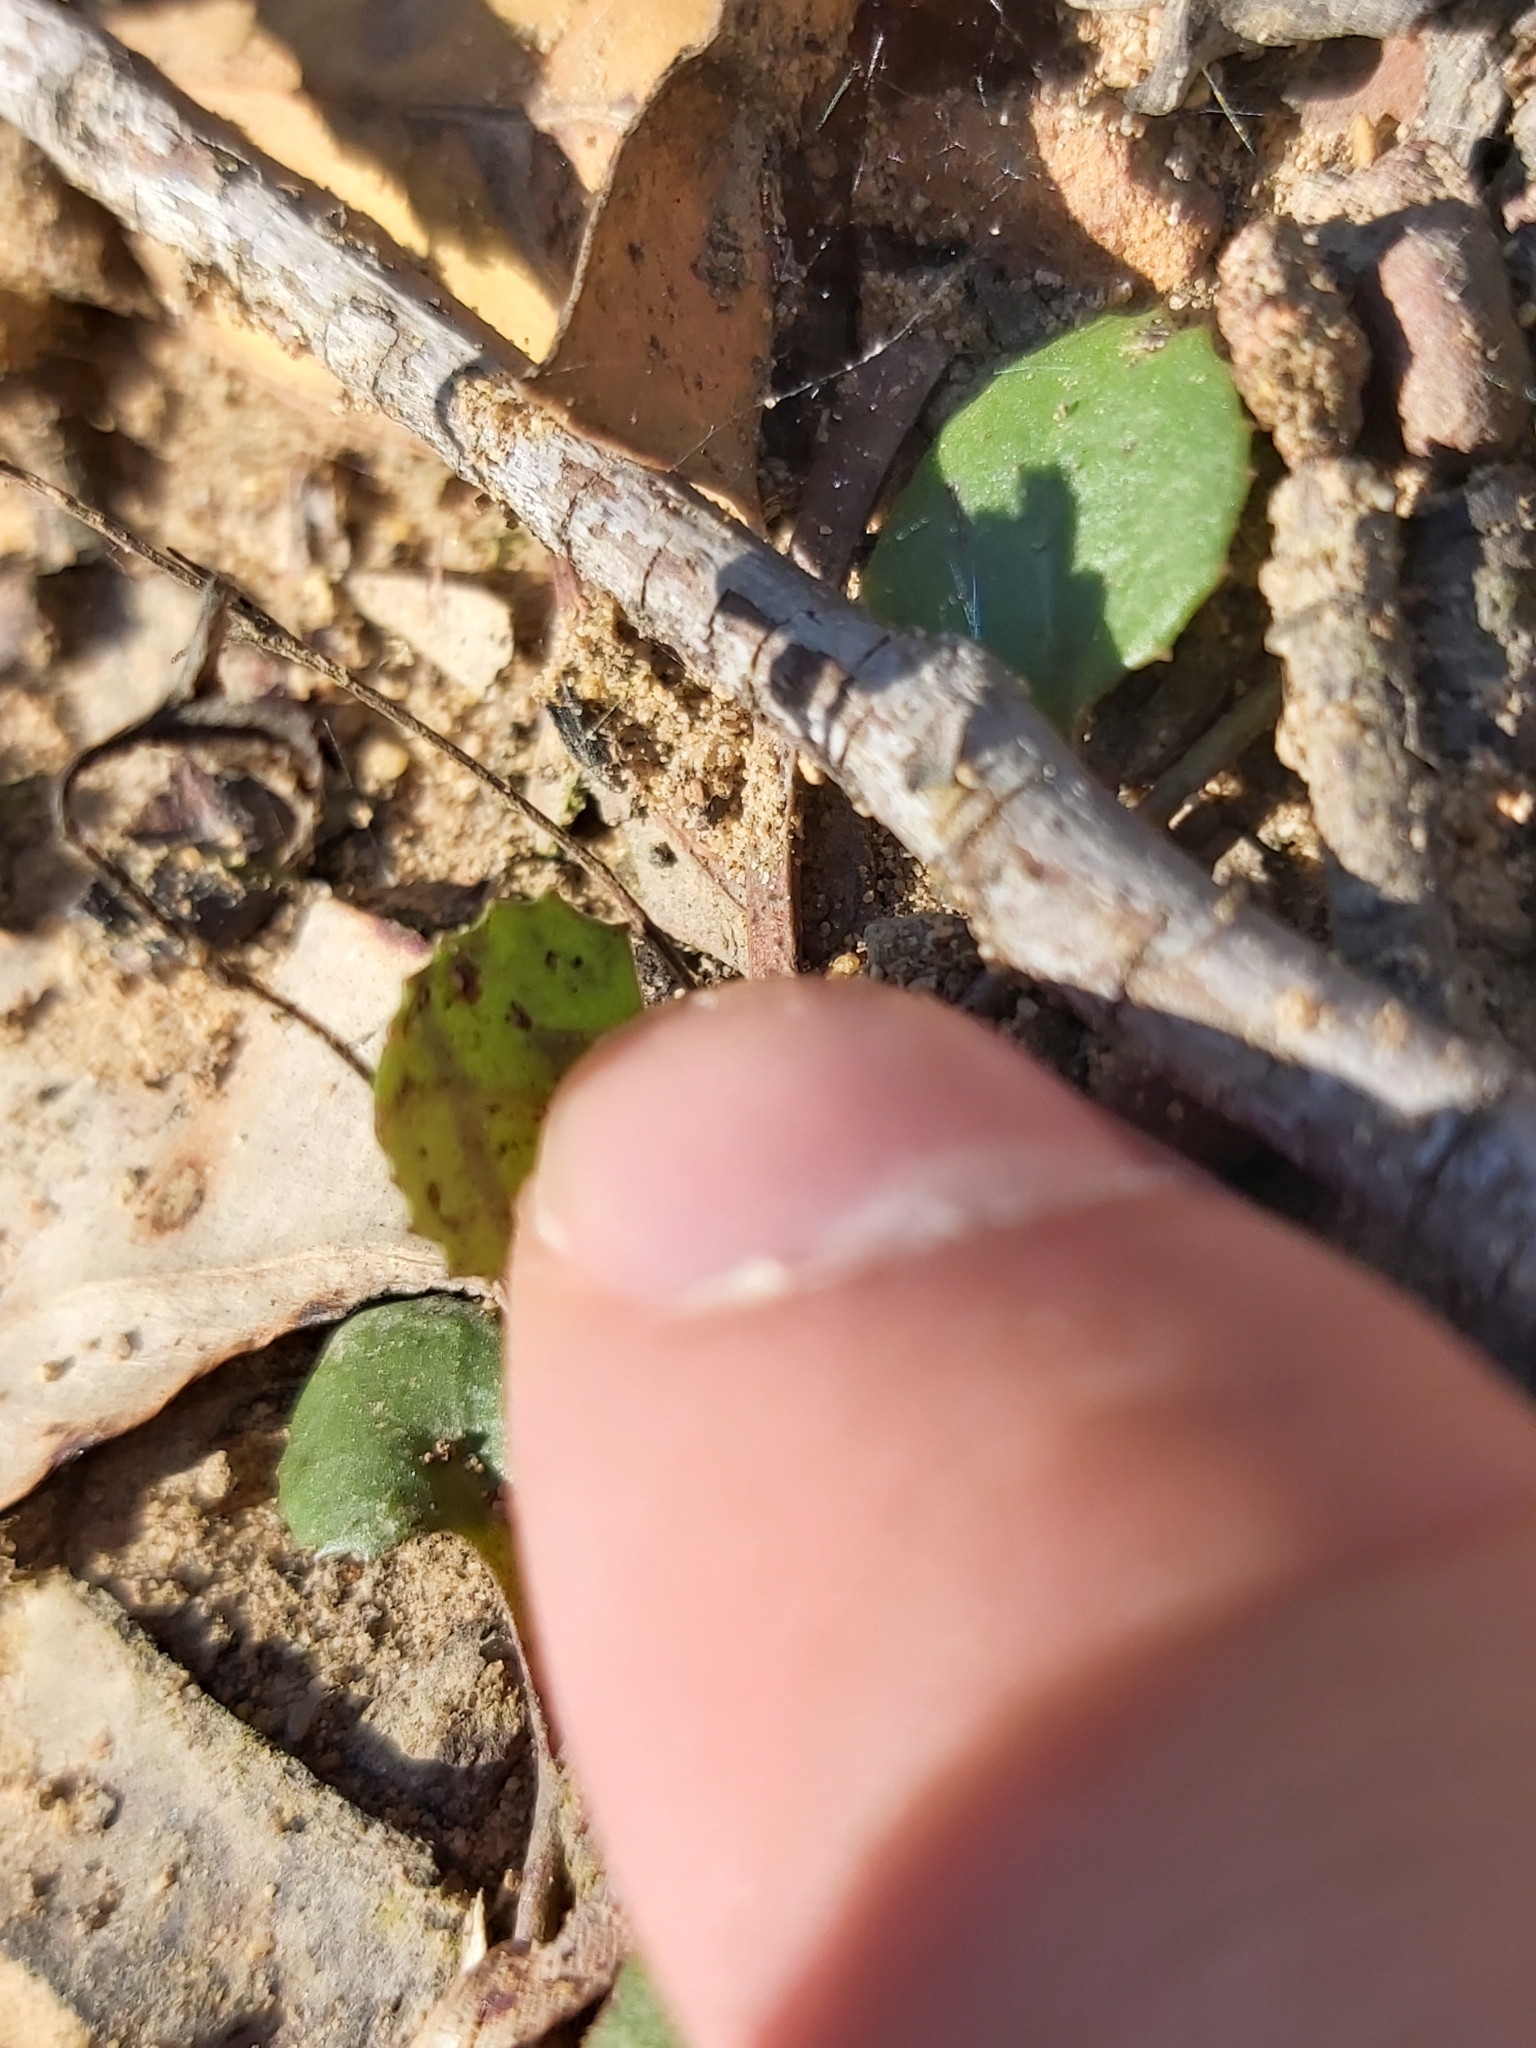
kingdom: Plantae
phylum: Tracheophyta
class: Magnoliopsida
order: Asterales
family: Goodeniaceae
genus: Goodenia
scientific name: Goodenia hederacea
